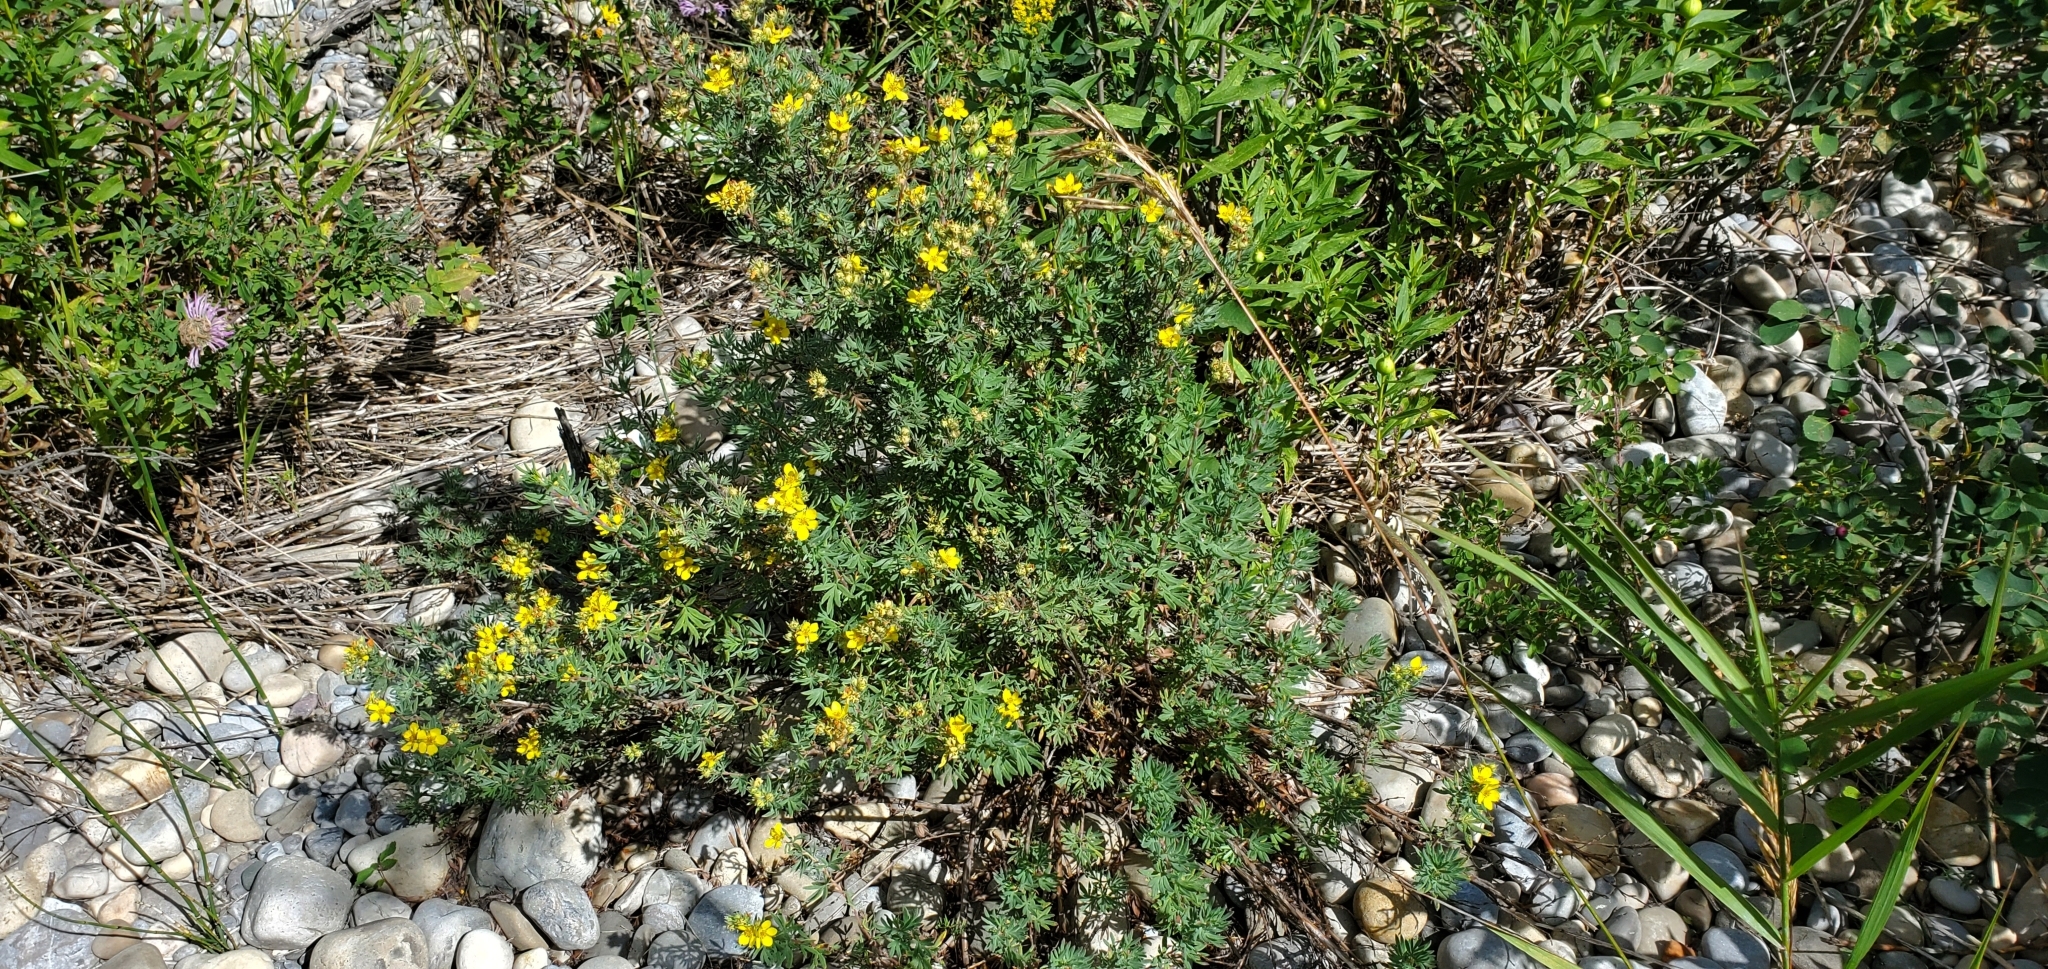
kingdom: Plantae
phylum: Tracheophyta
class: Magnoliopsida
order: Rosales
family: Rosaceae
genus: Dasiphora
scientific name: Dasiphora fruticosa
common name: Shrubby cinquefoil
